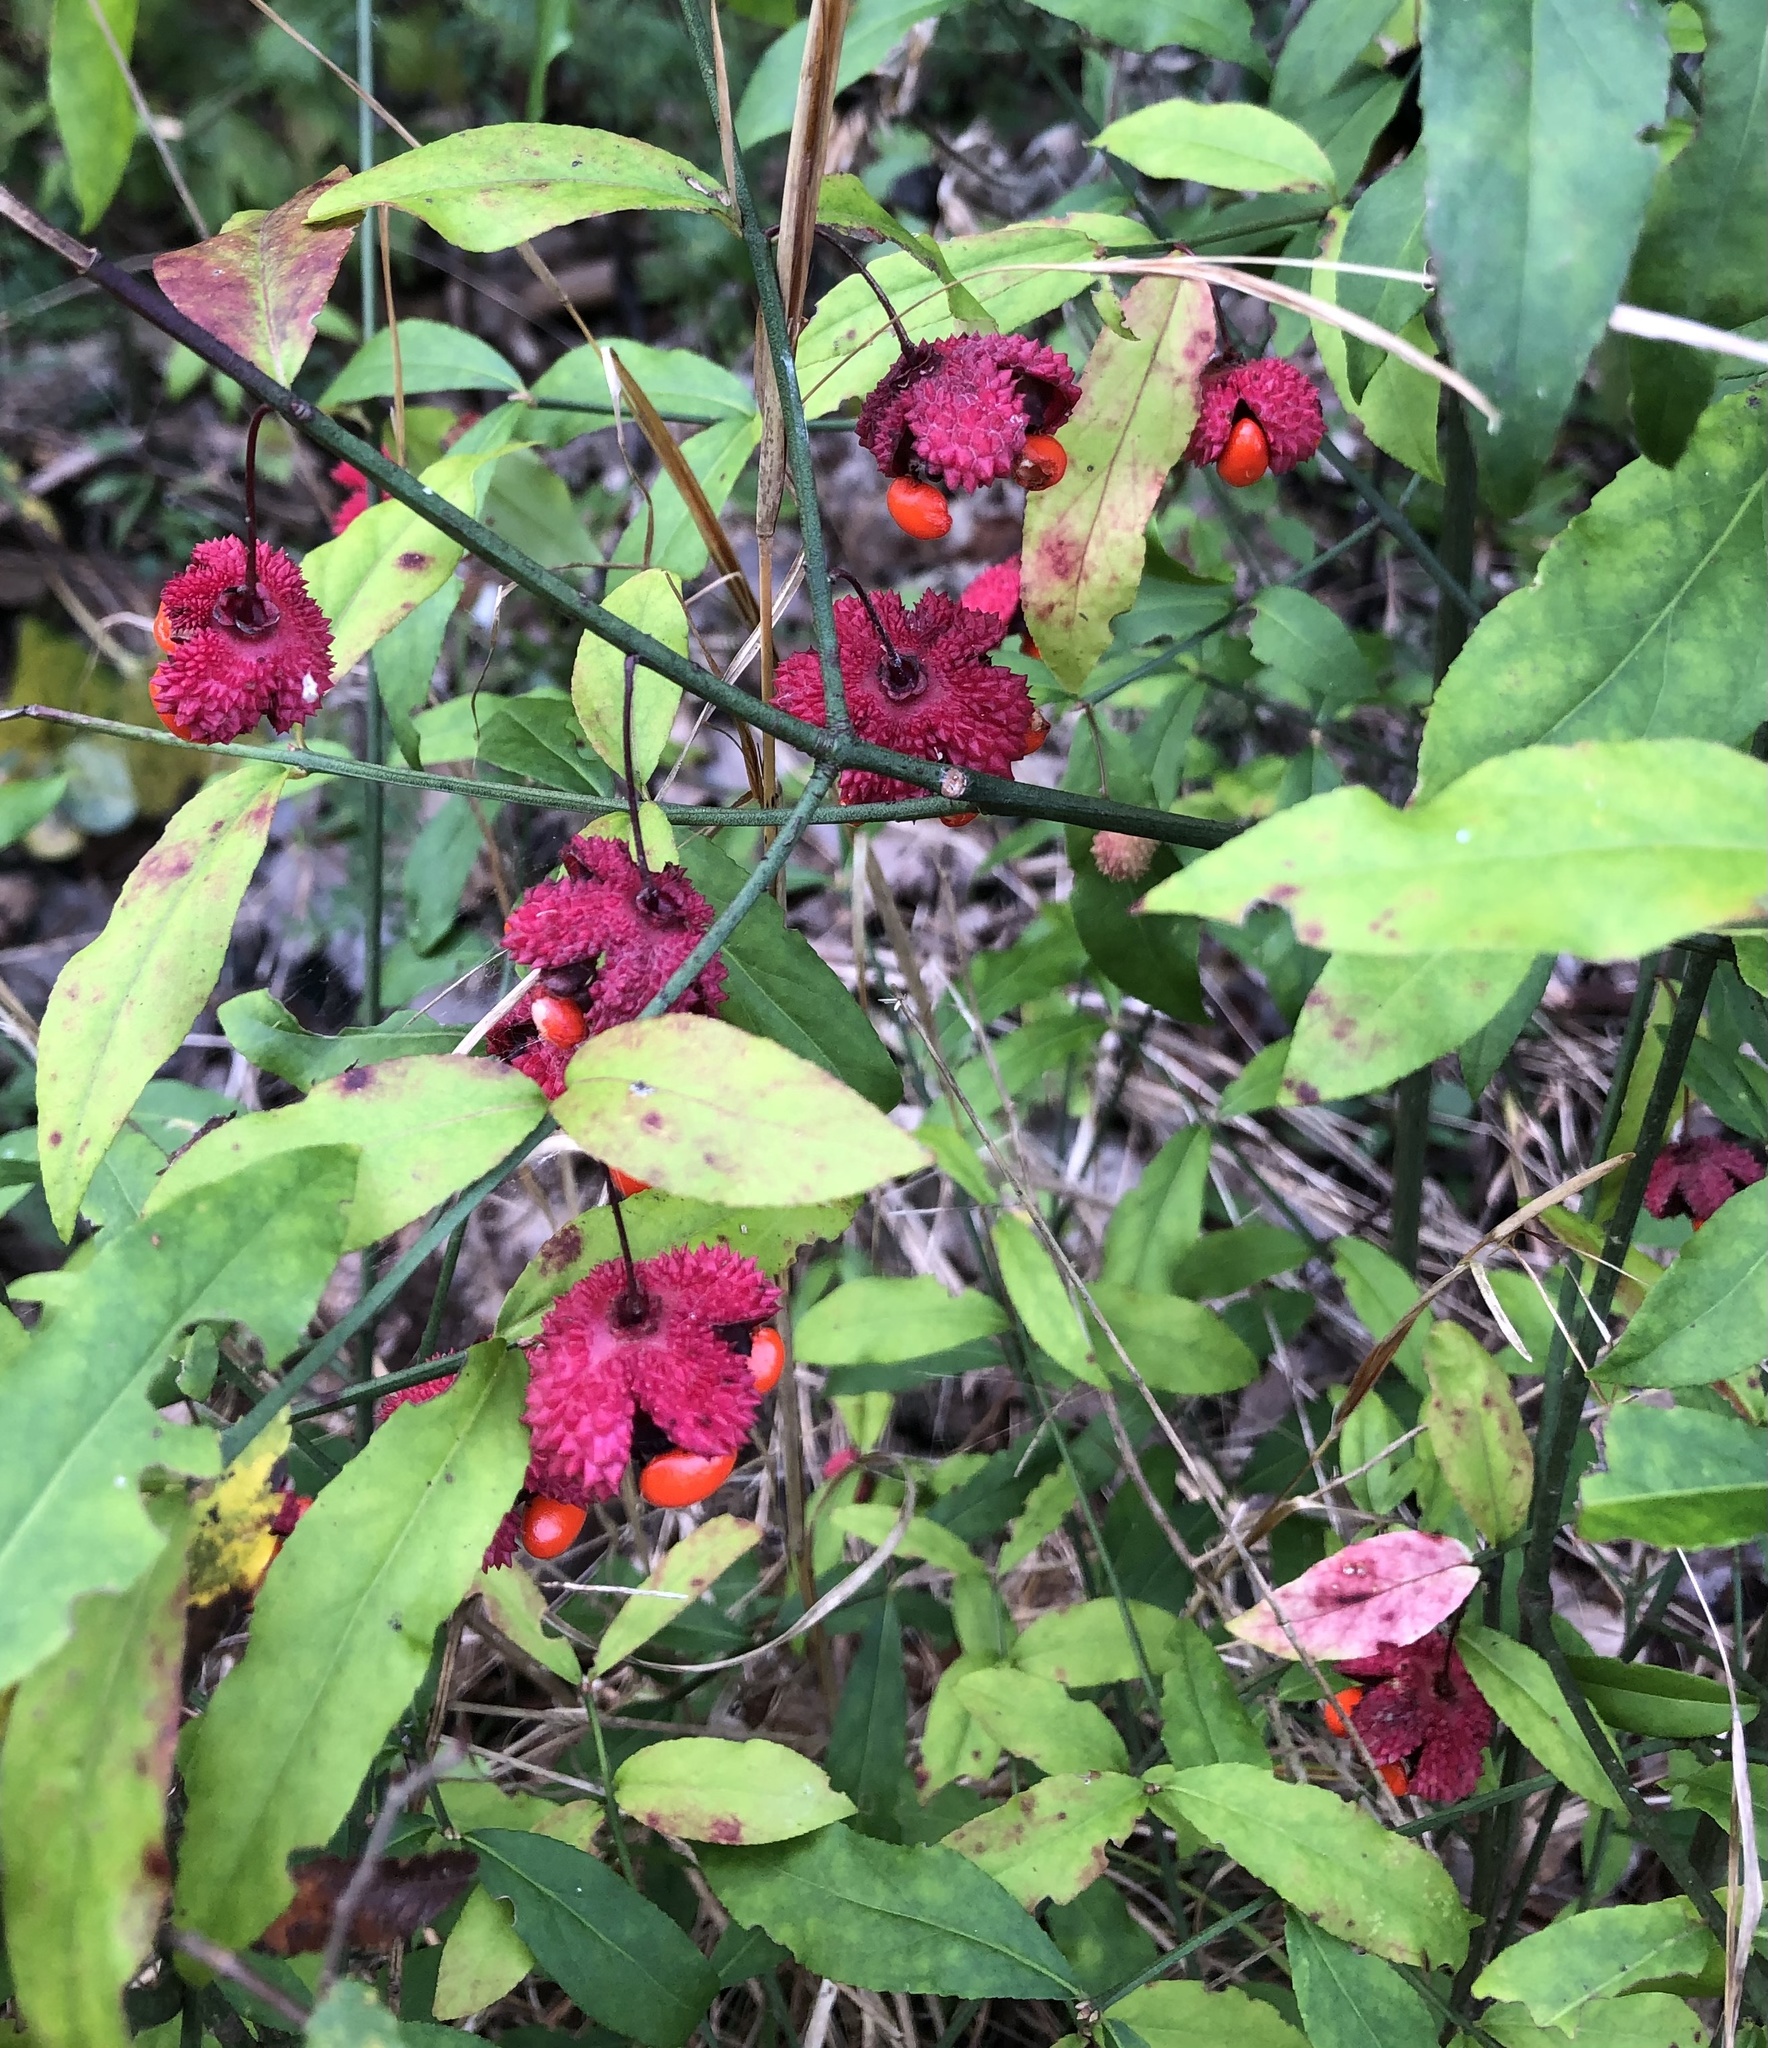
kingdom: Plantae
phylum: Tracheophyta
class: Magnoliopsida
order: Celastrales
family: Celastraceae
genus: Euonymus
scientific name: Euonymus americanus
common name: Bursting-heart
